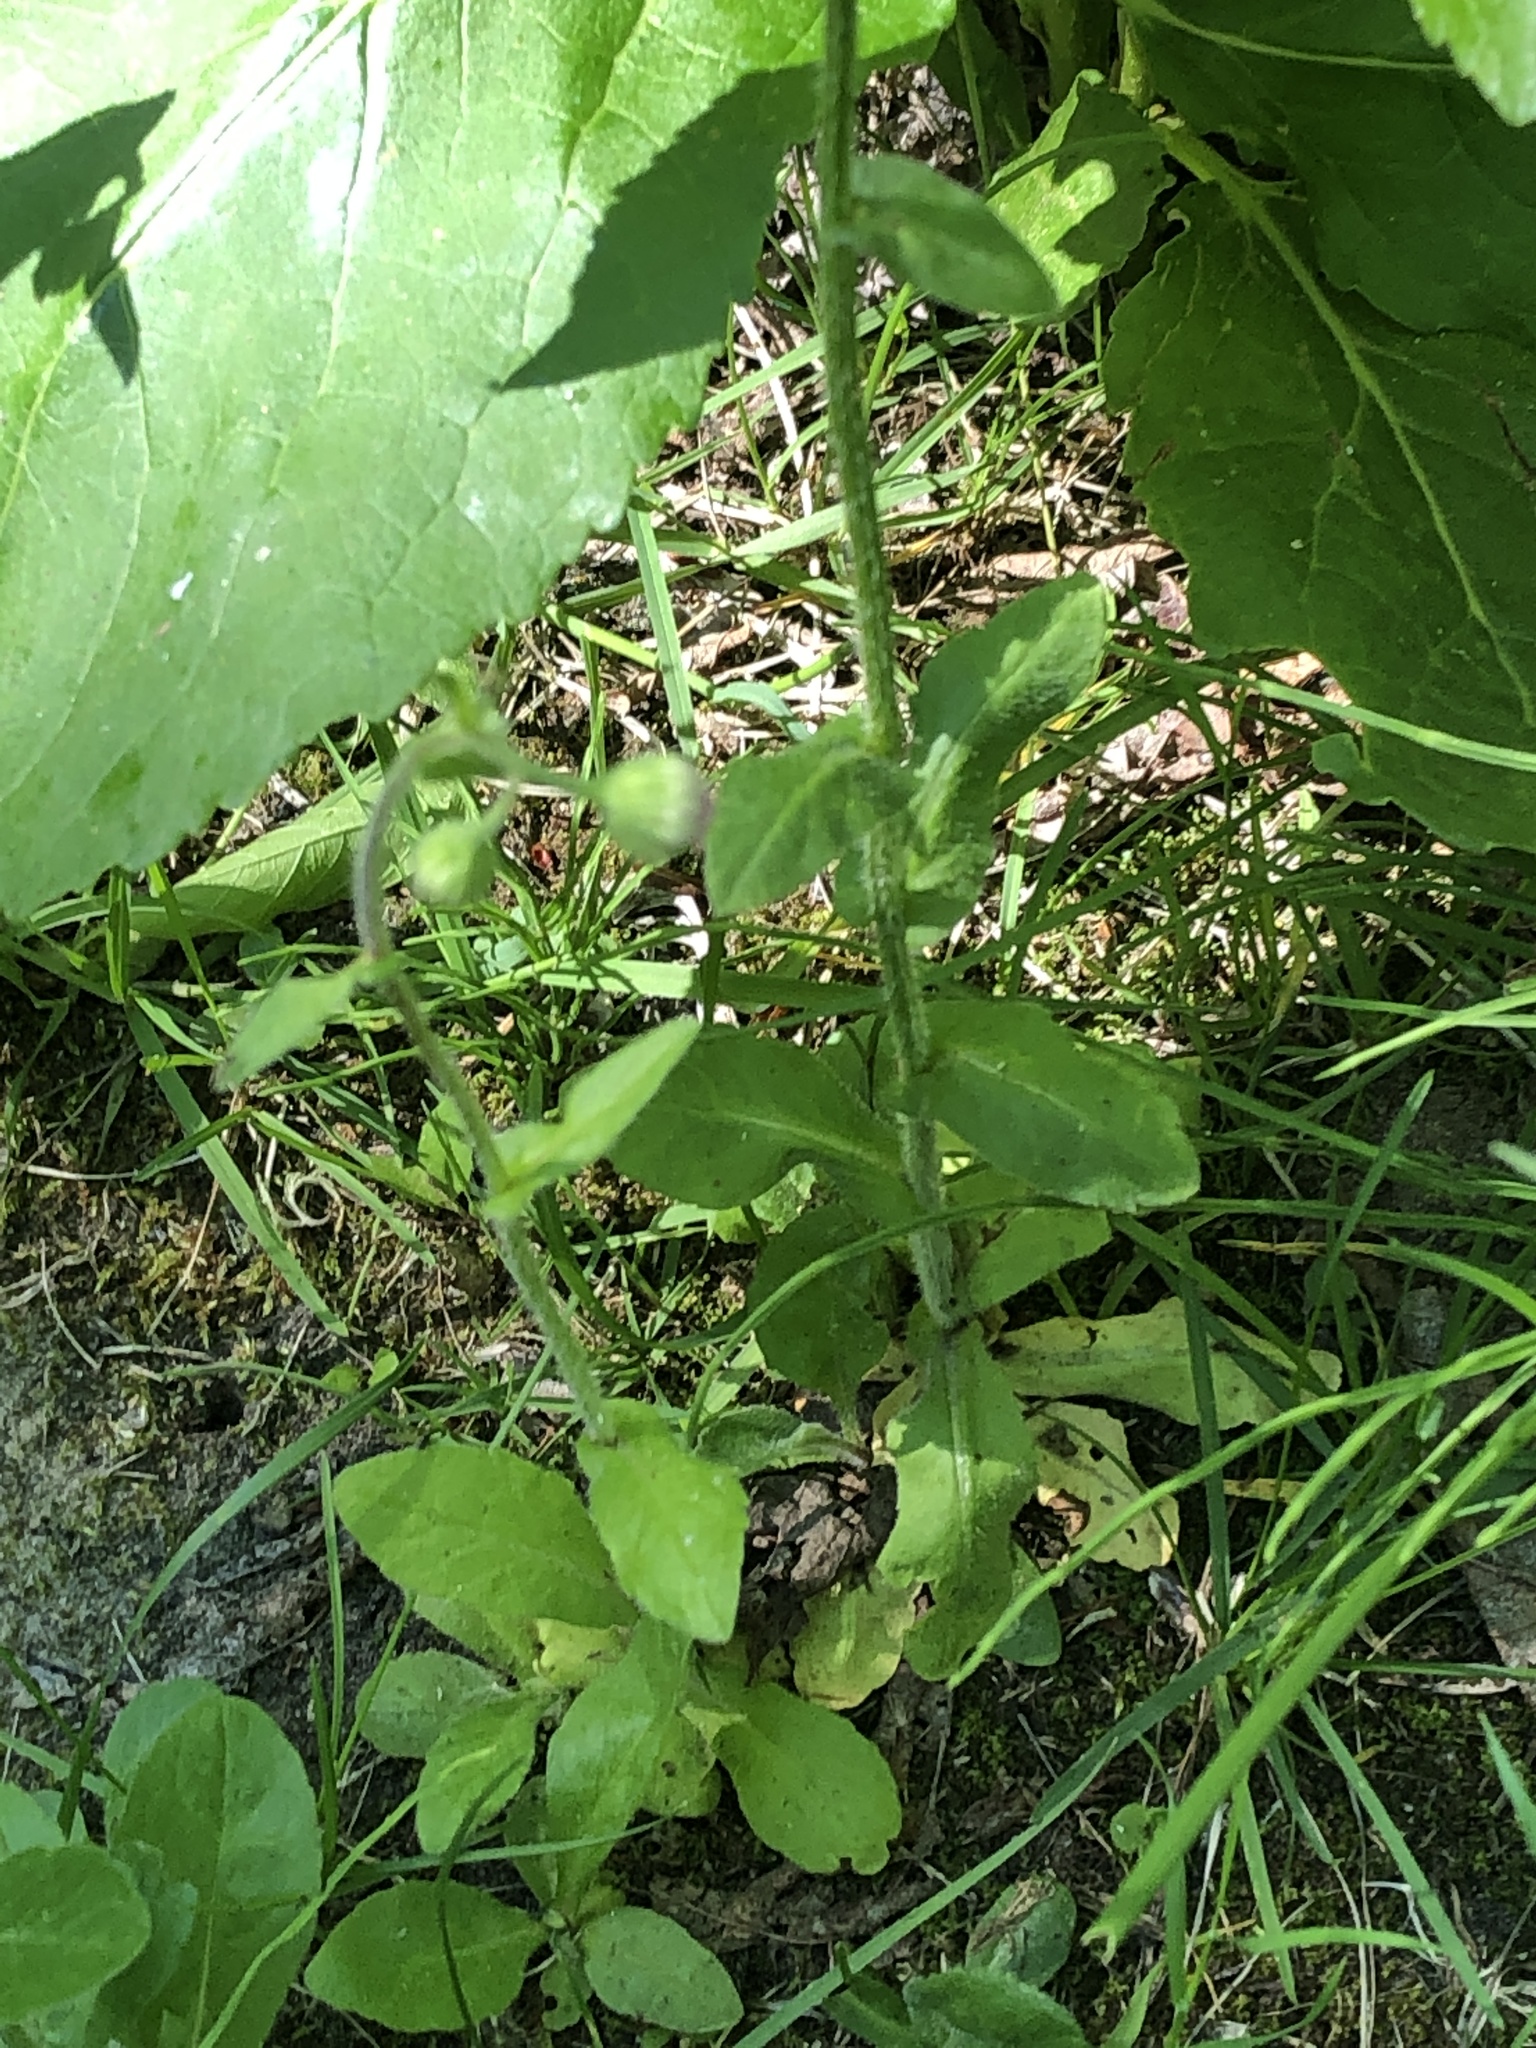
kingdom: Plantae
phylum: Tracheophyta
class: Magnoliopsida
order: Asterales
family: Asteraceae
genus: Erigeron
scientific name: Erigeron philadelphicus
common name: Robin's-plantain
